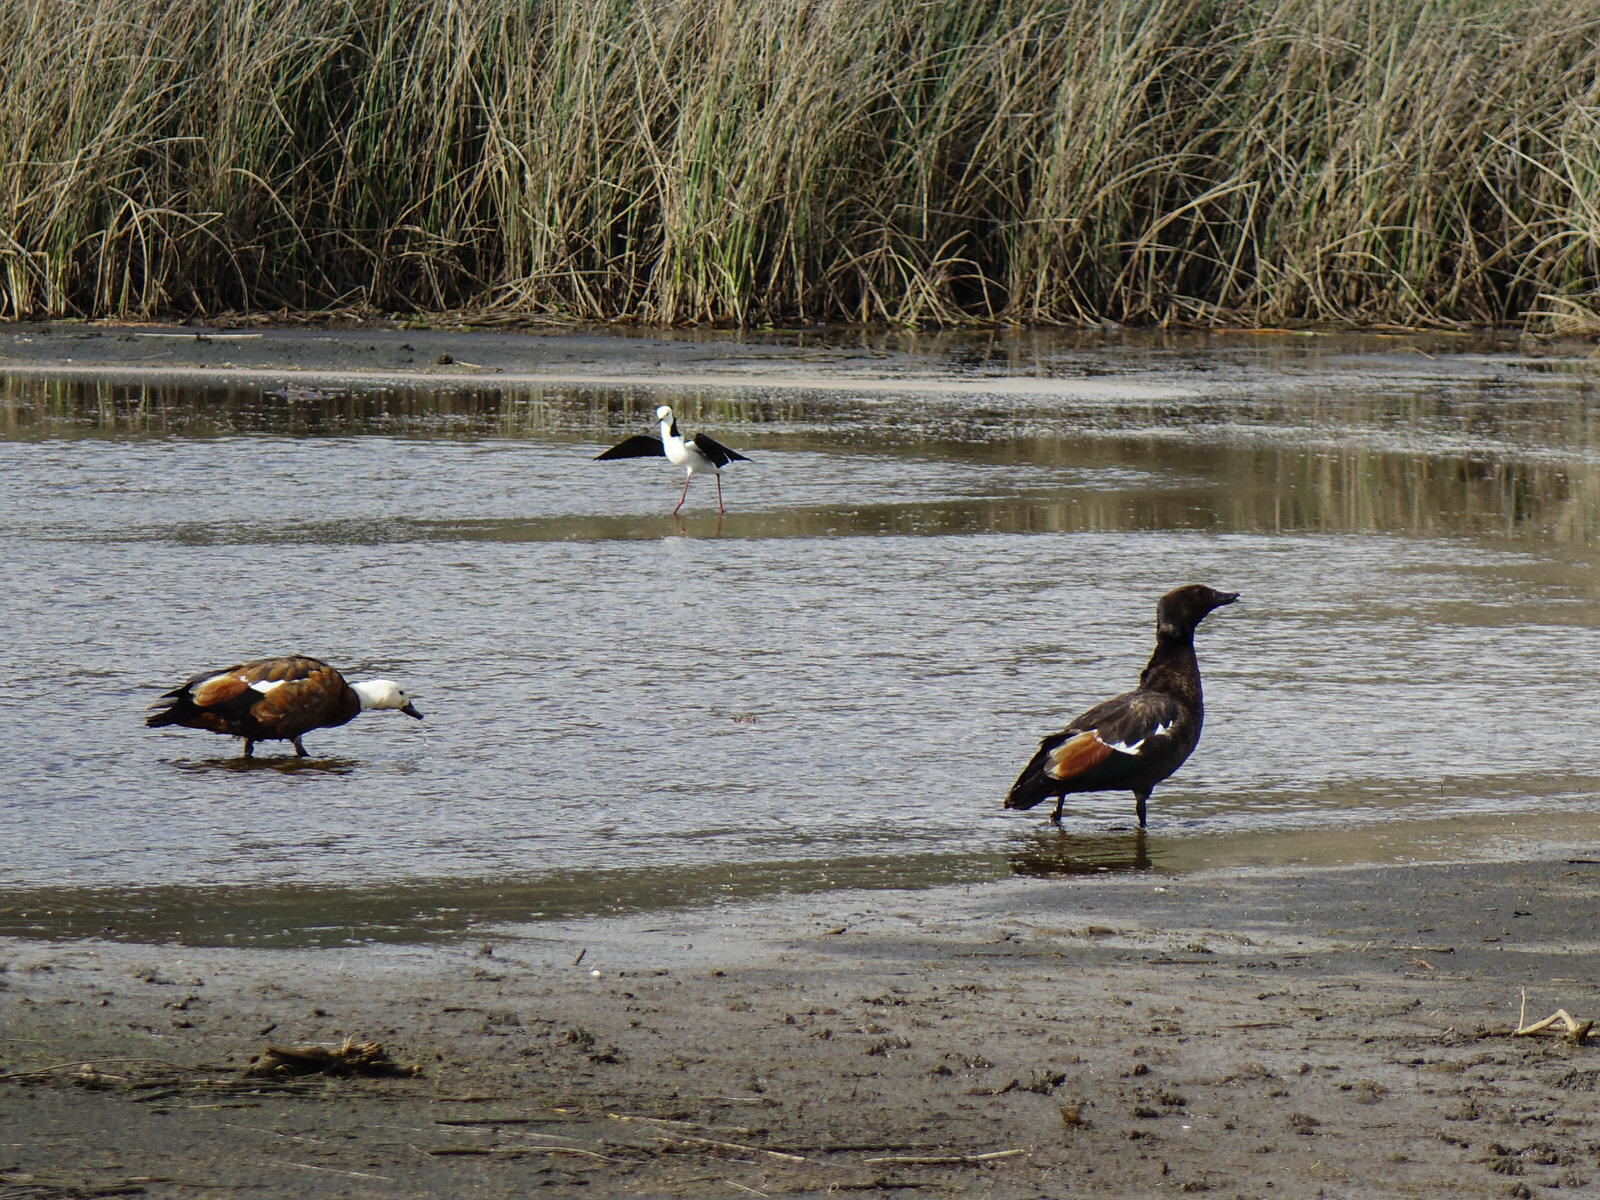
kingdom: Animalia
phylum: Chordata
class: Aves
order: Anseriformes
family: Anatidae
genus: Tadorna
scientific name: Tadorna variegata
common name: Paradise shelduck
